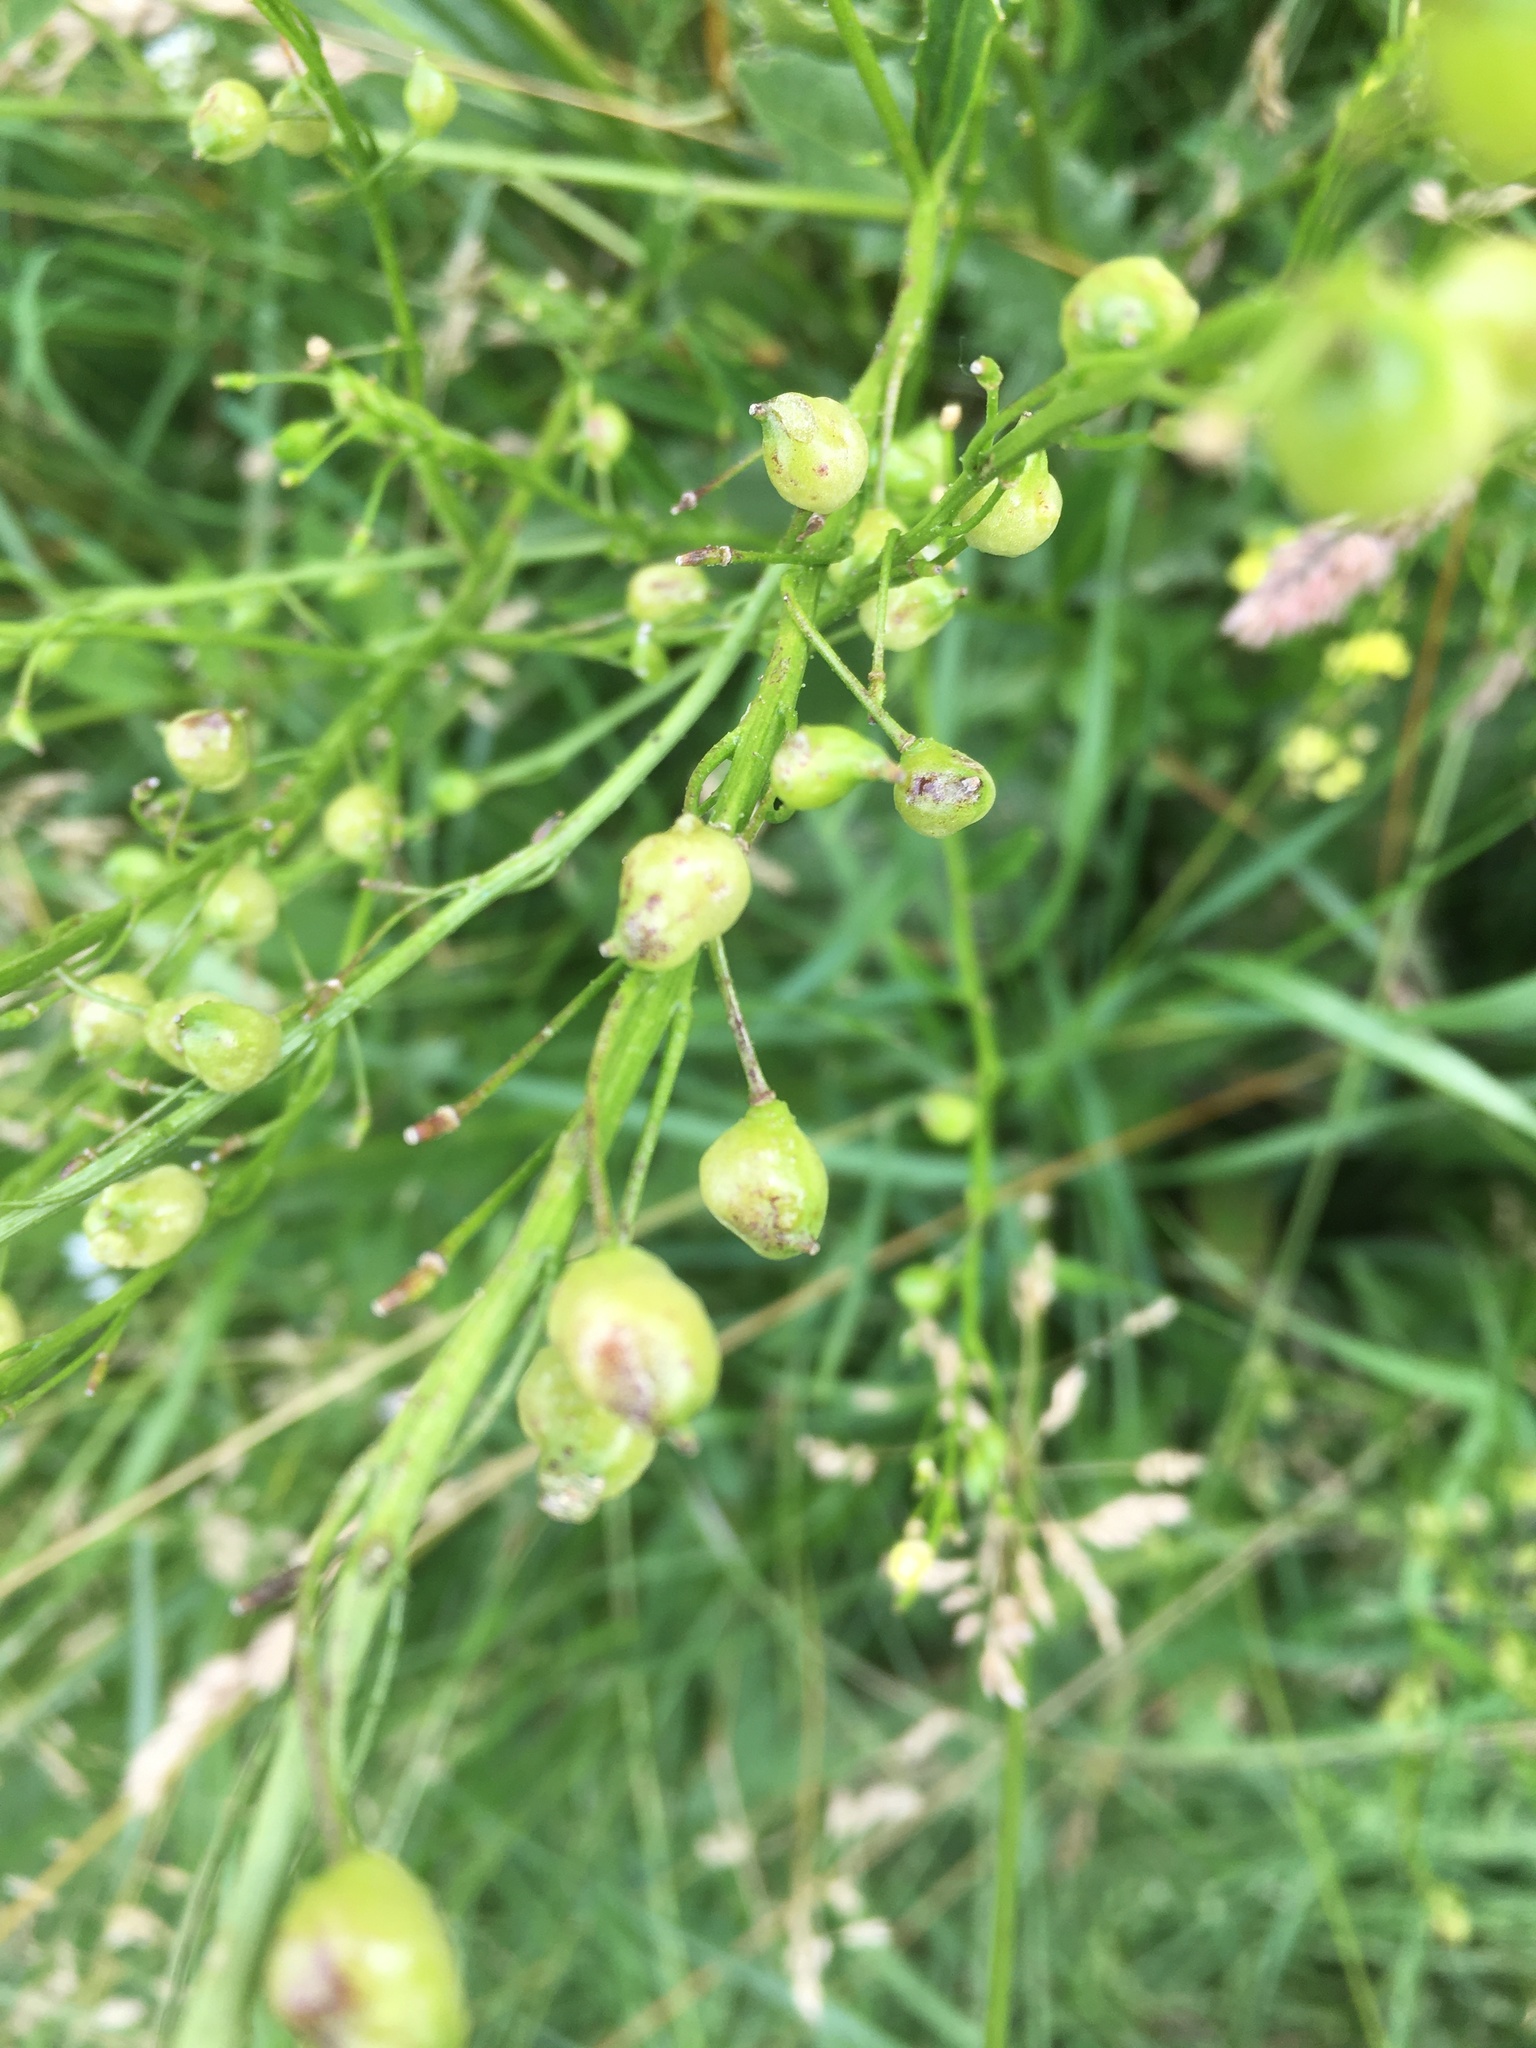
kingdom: Plantae
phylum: Tracheophyta
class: Magnoliopsida
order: Brassicales
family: Brassicaceae
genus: Bunias
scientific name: Bunias orientalis
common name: Warty-cabbage
